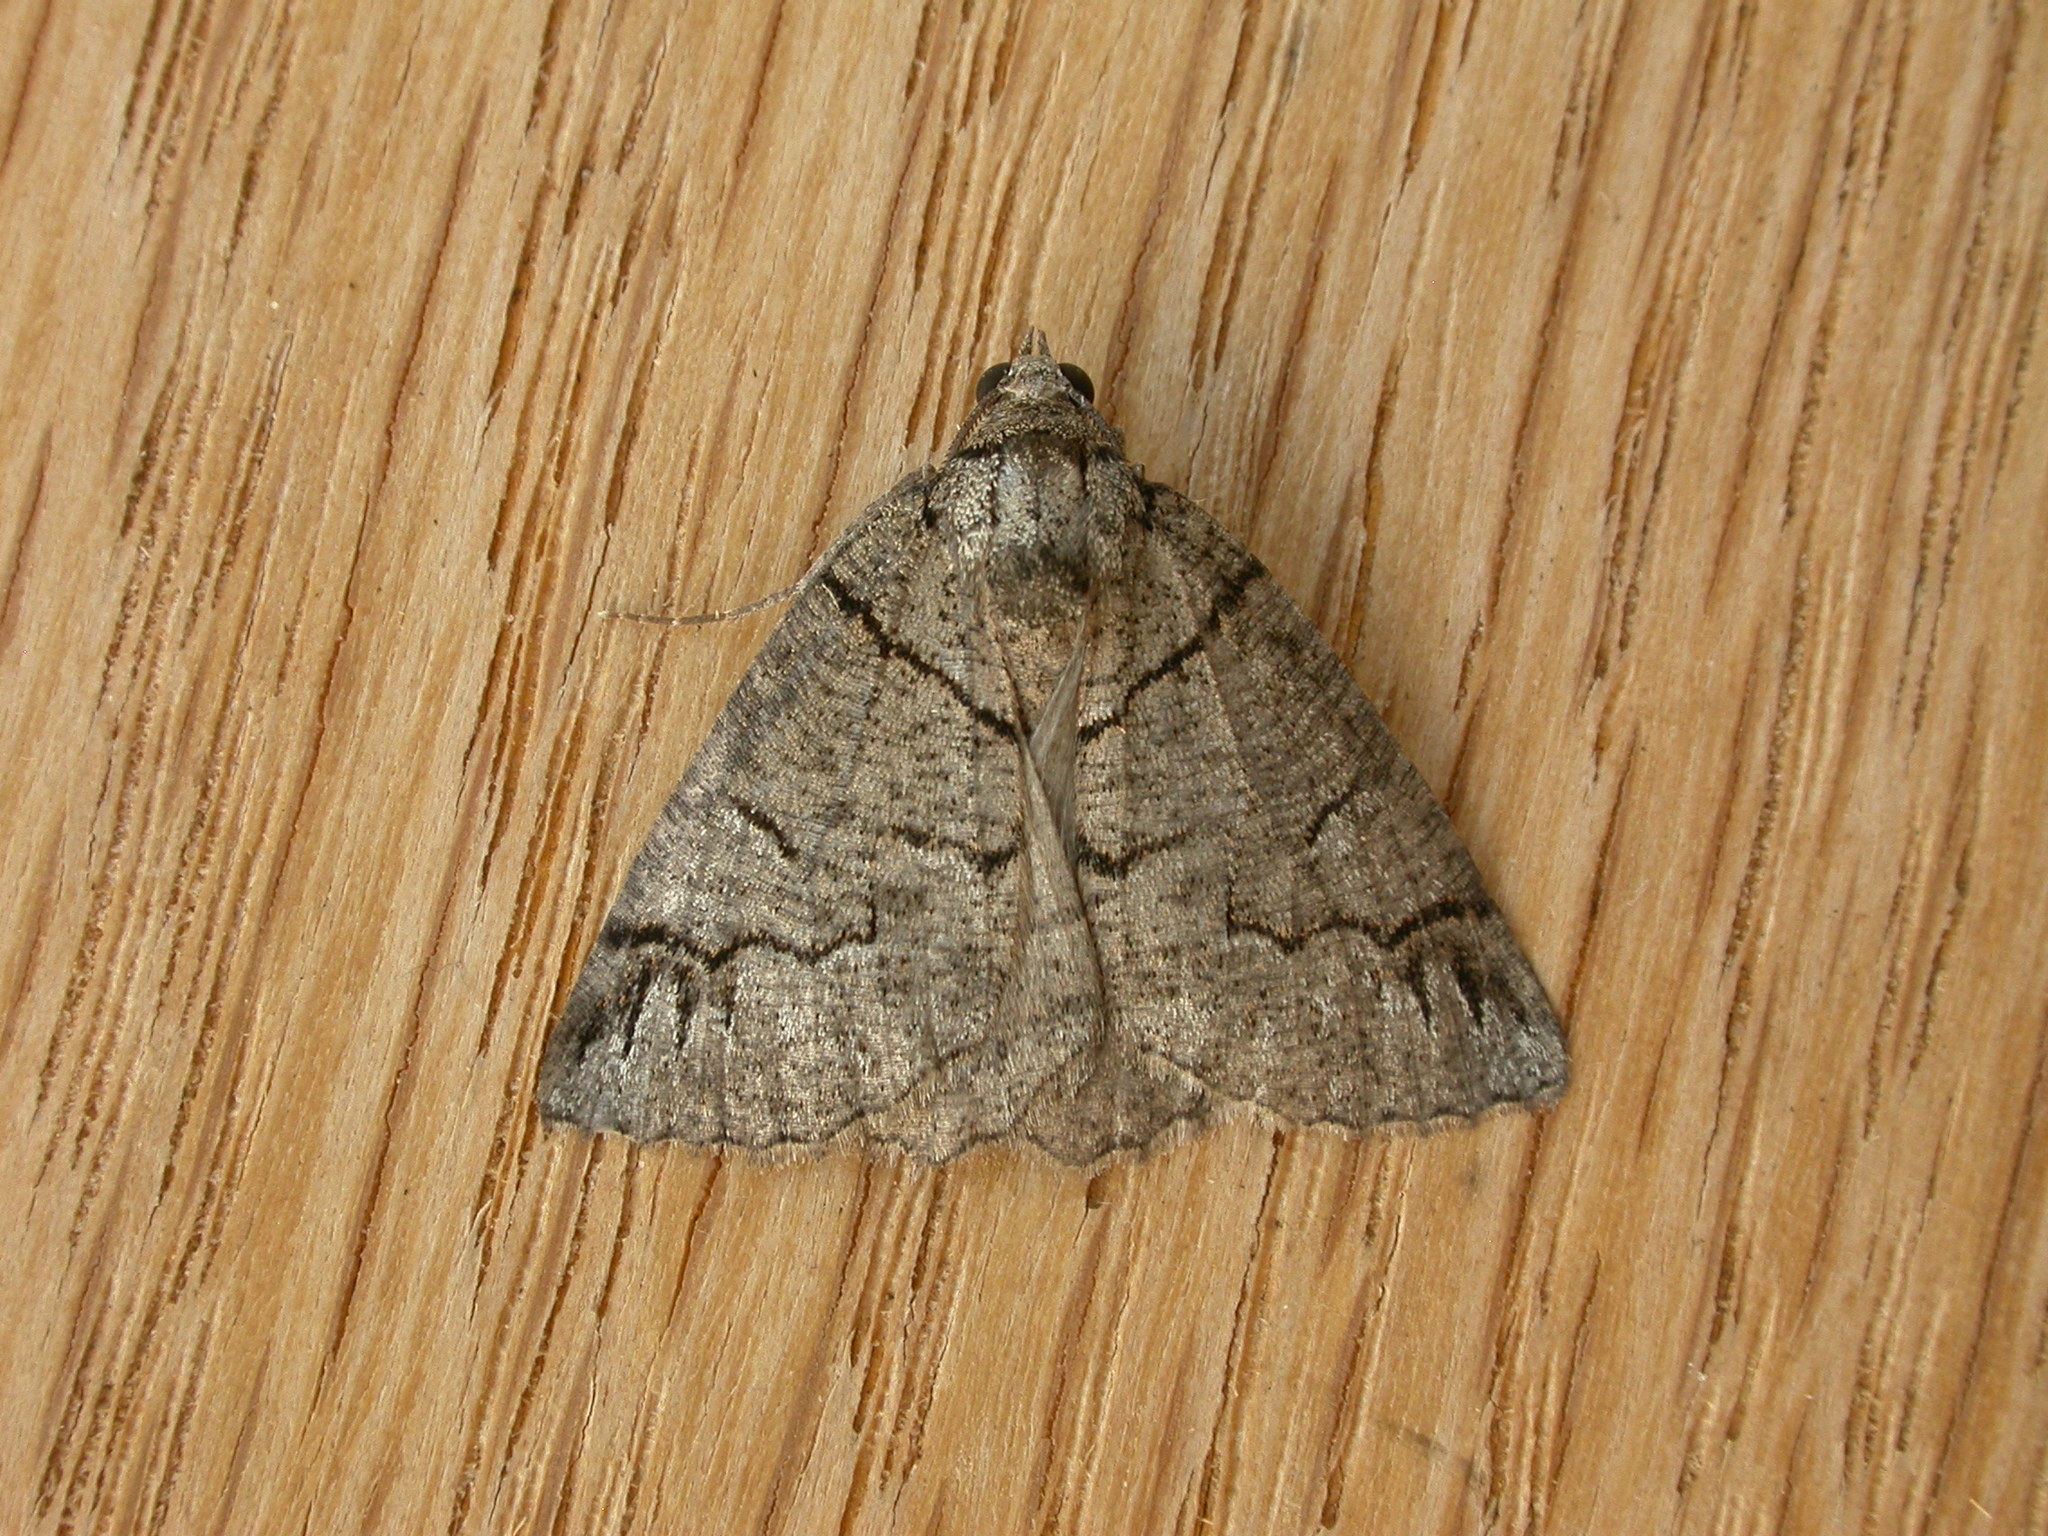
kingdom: Animalia
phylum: Arthropoda
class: Insecta
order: Lepidoptera
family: Geometridae
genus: Austroterpna
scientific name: Austroterpna paratorna
